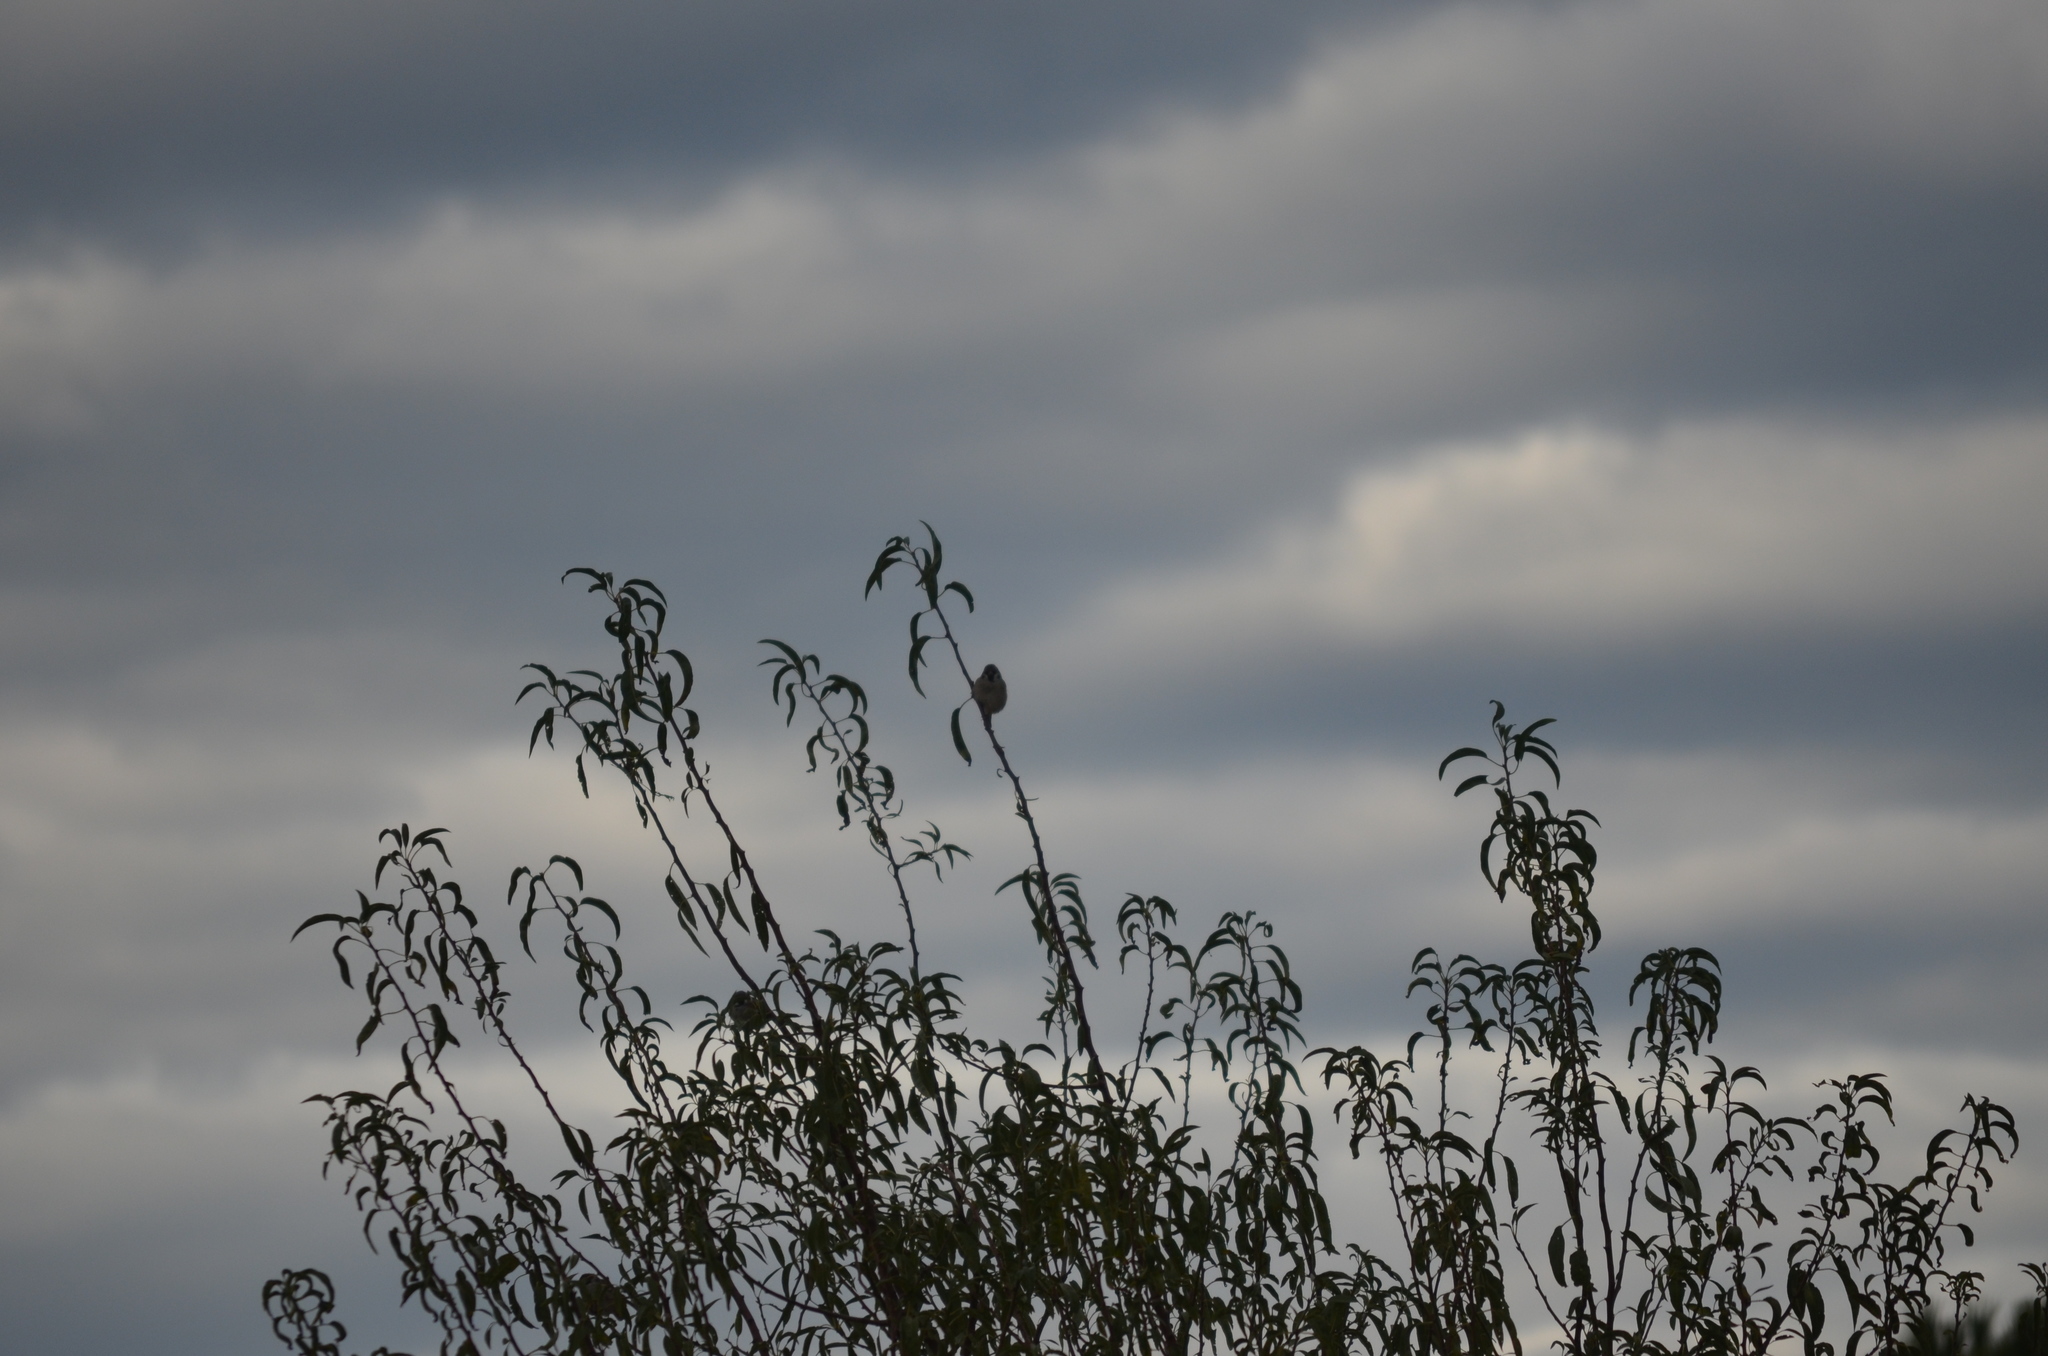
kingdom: Animalia
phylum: Chordata
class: Aves
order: Passeriformes
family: Passeridae
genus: Passer
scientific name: Passer montanus
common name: Eurasian tree sparrow
